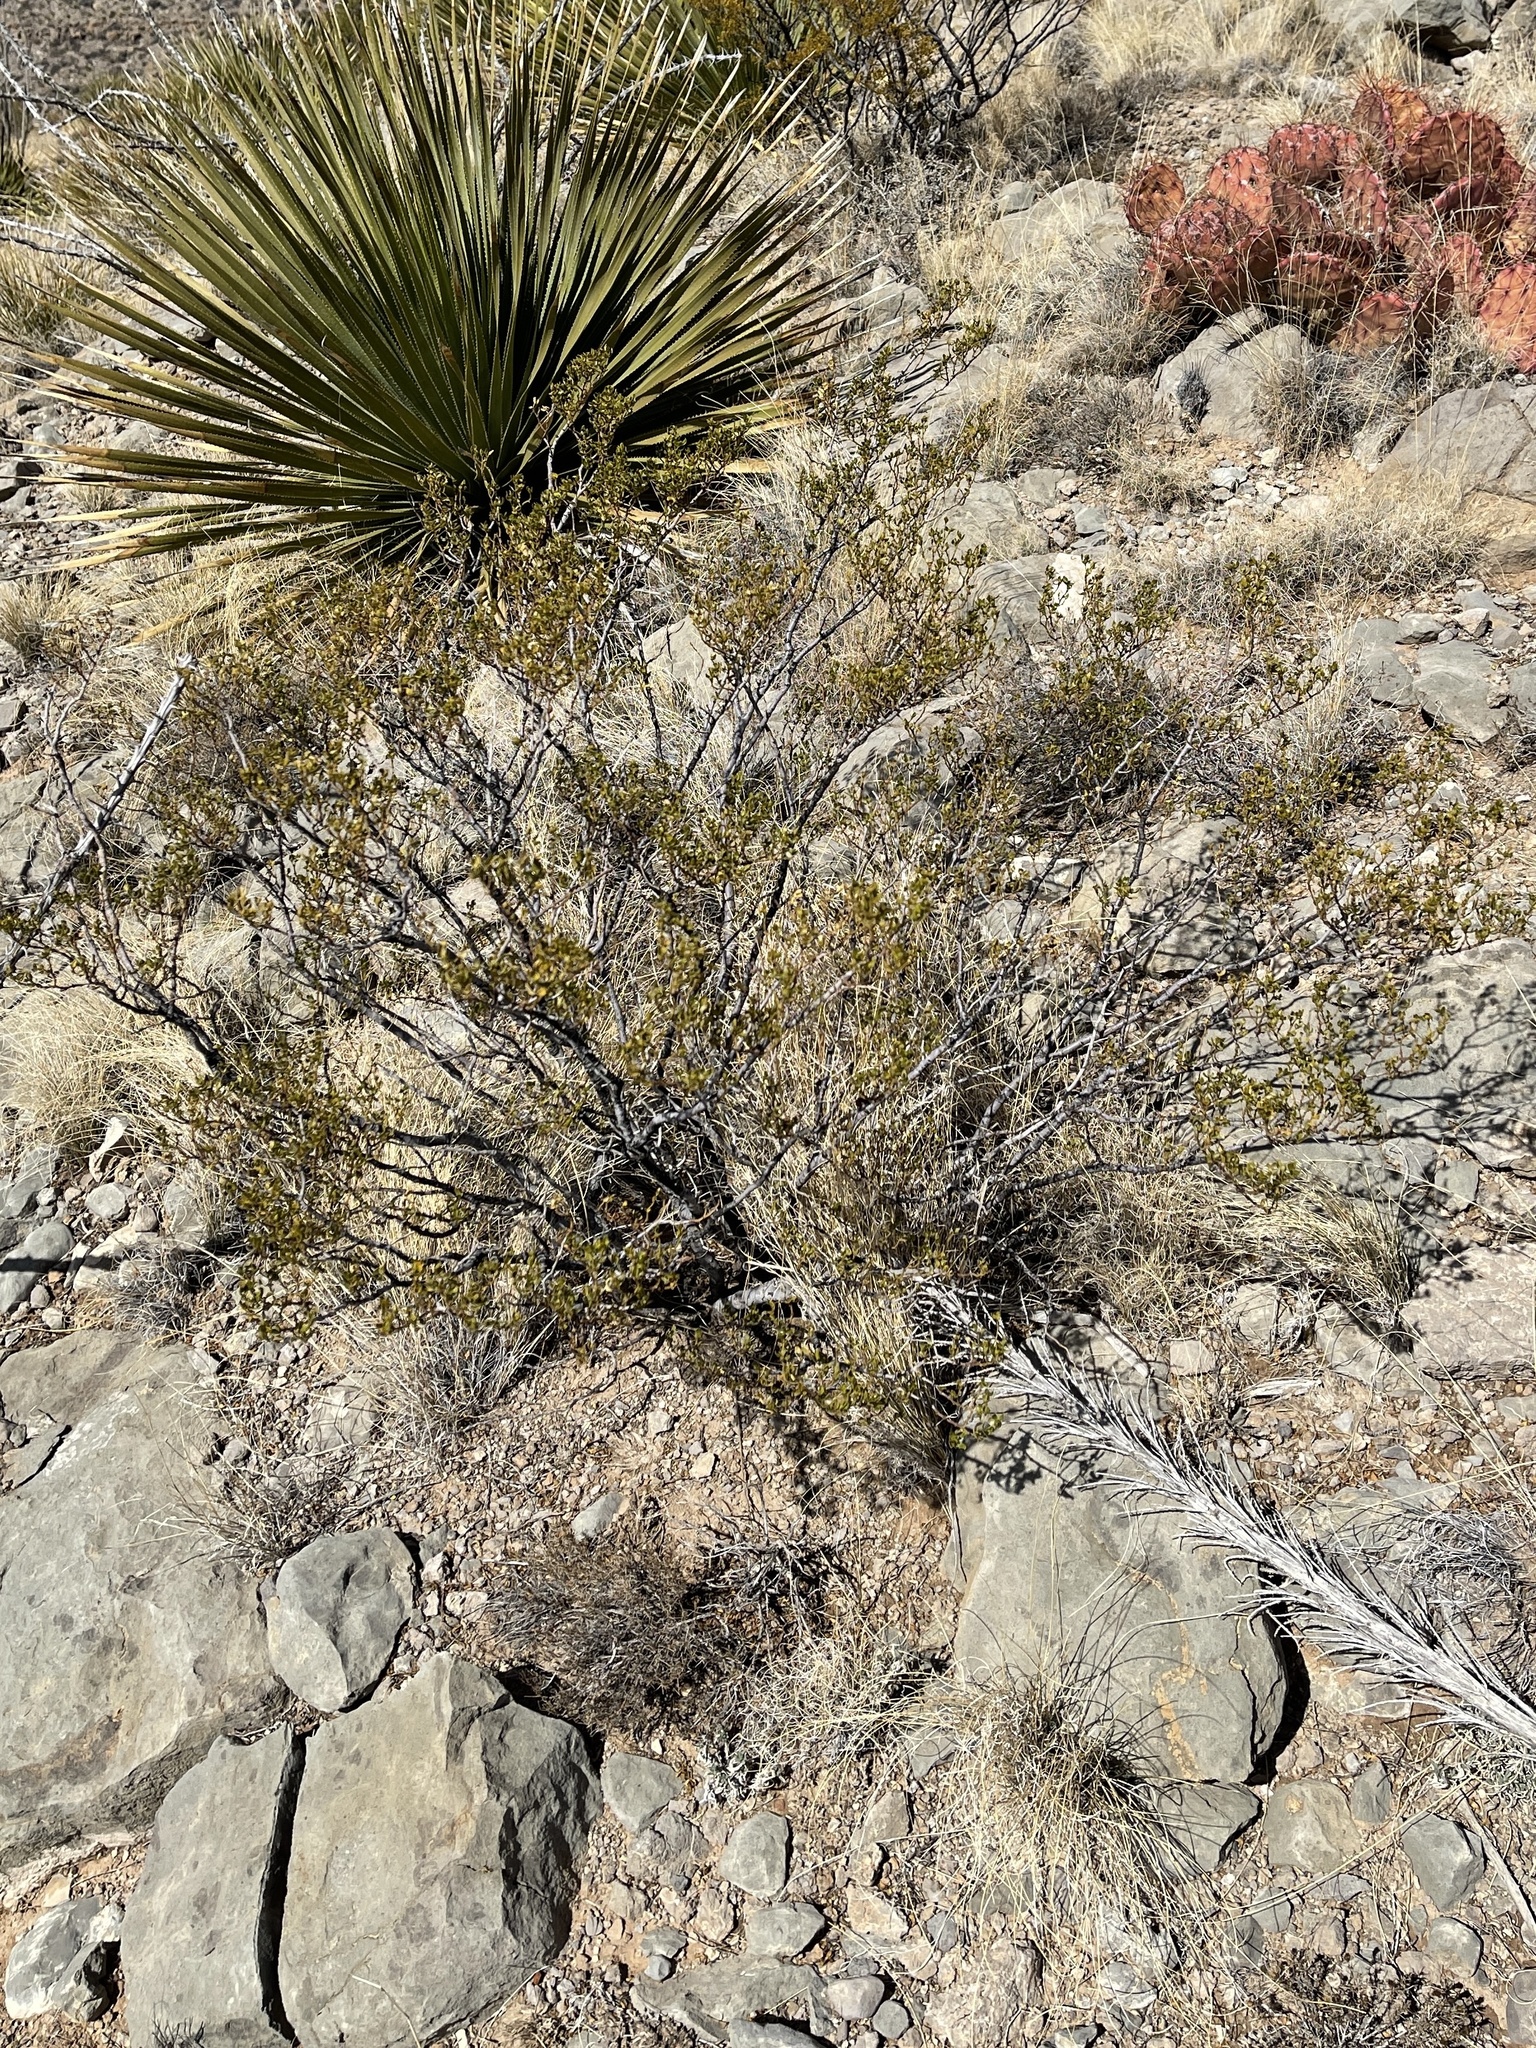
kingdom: Plantae
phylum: Tracheophyta
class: Magnoliopsida
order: Zygophyllales
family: Zygophyllaceae
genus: Larrea
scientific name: Larrea tridentata
